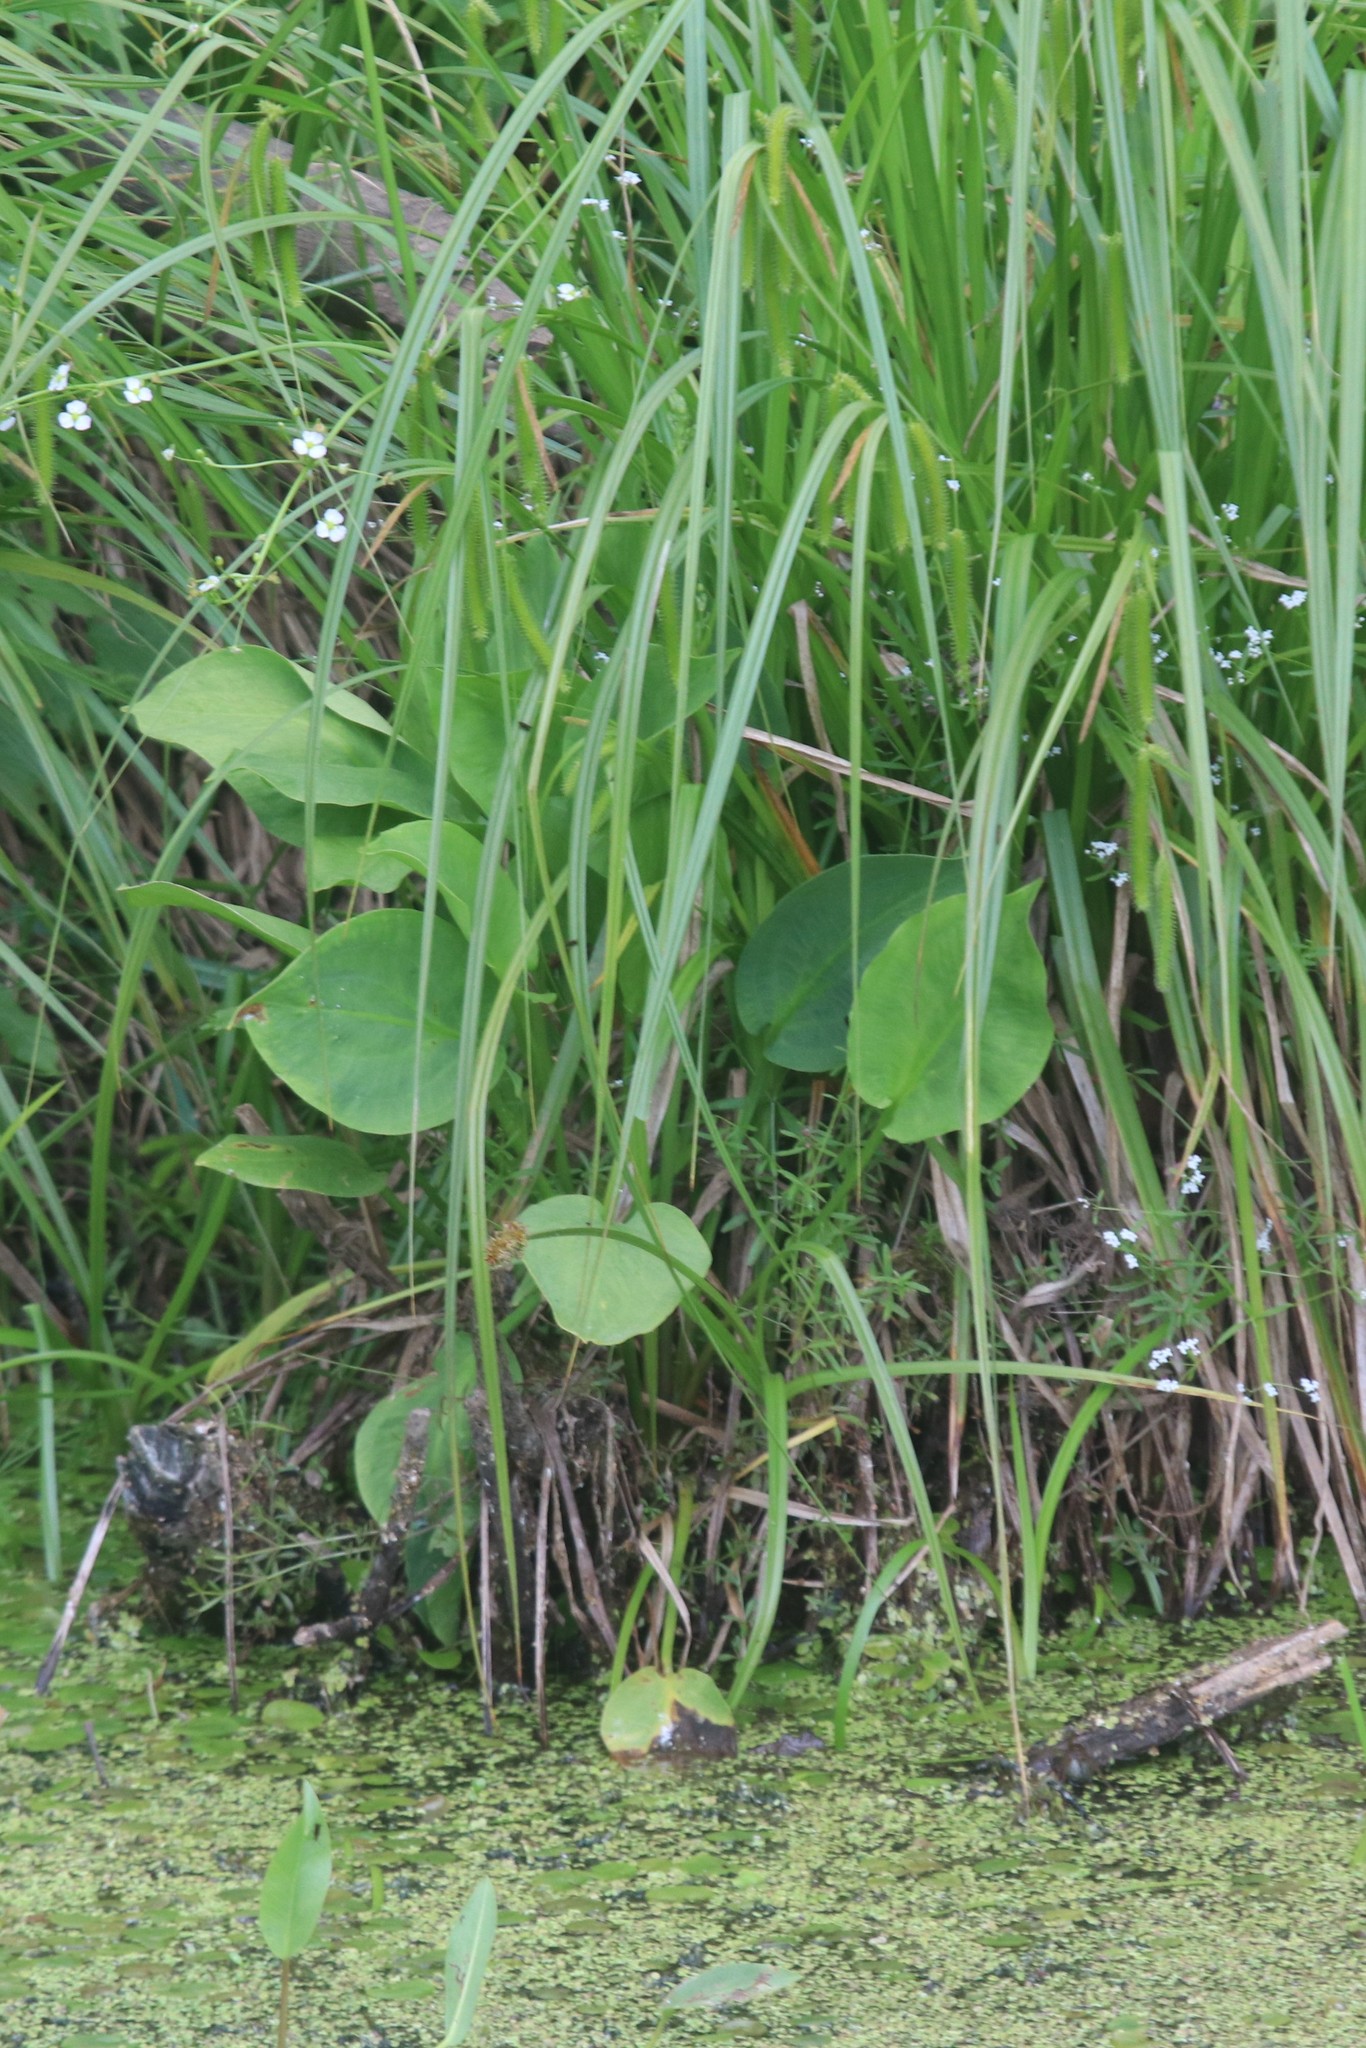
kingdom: Plantae
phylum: Tracheophyta
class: Liliopsida
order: Alismatales
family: Alismataceae
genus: Alisma
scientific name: Alisma plantago-aquatica
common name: Water-plantain
